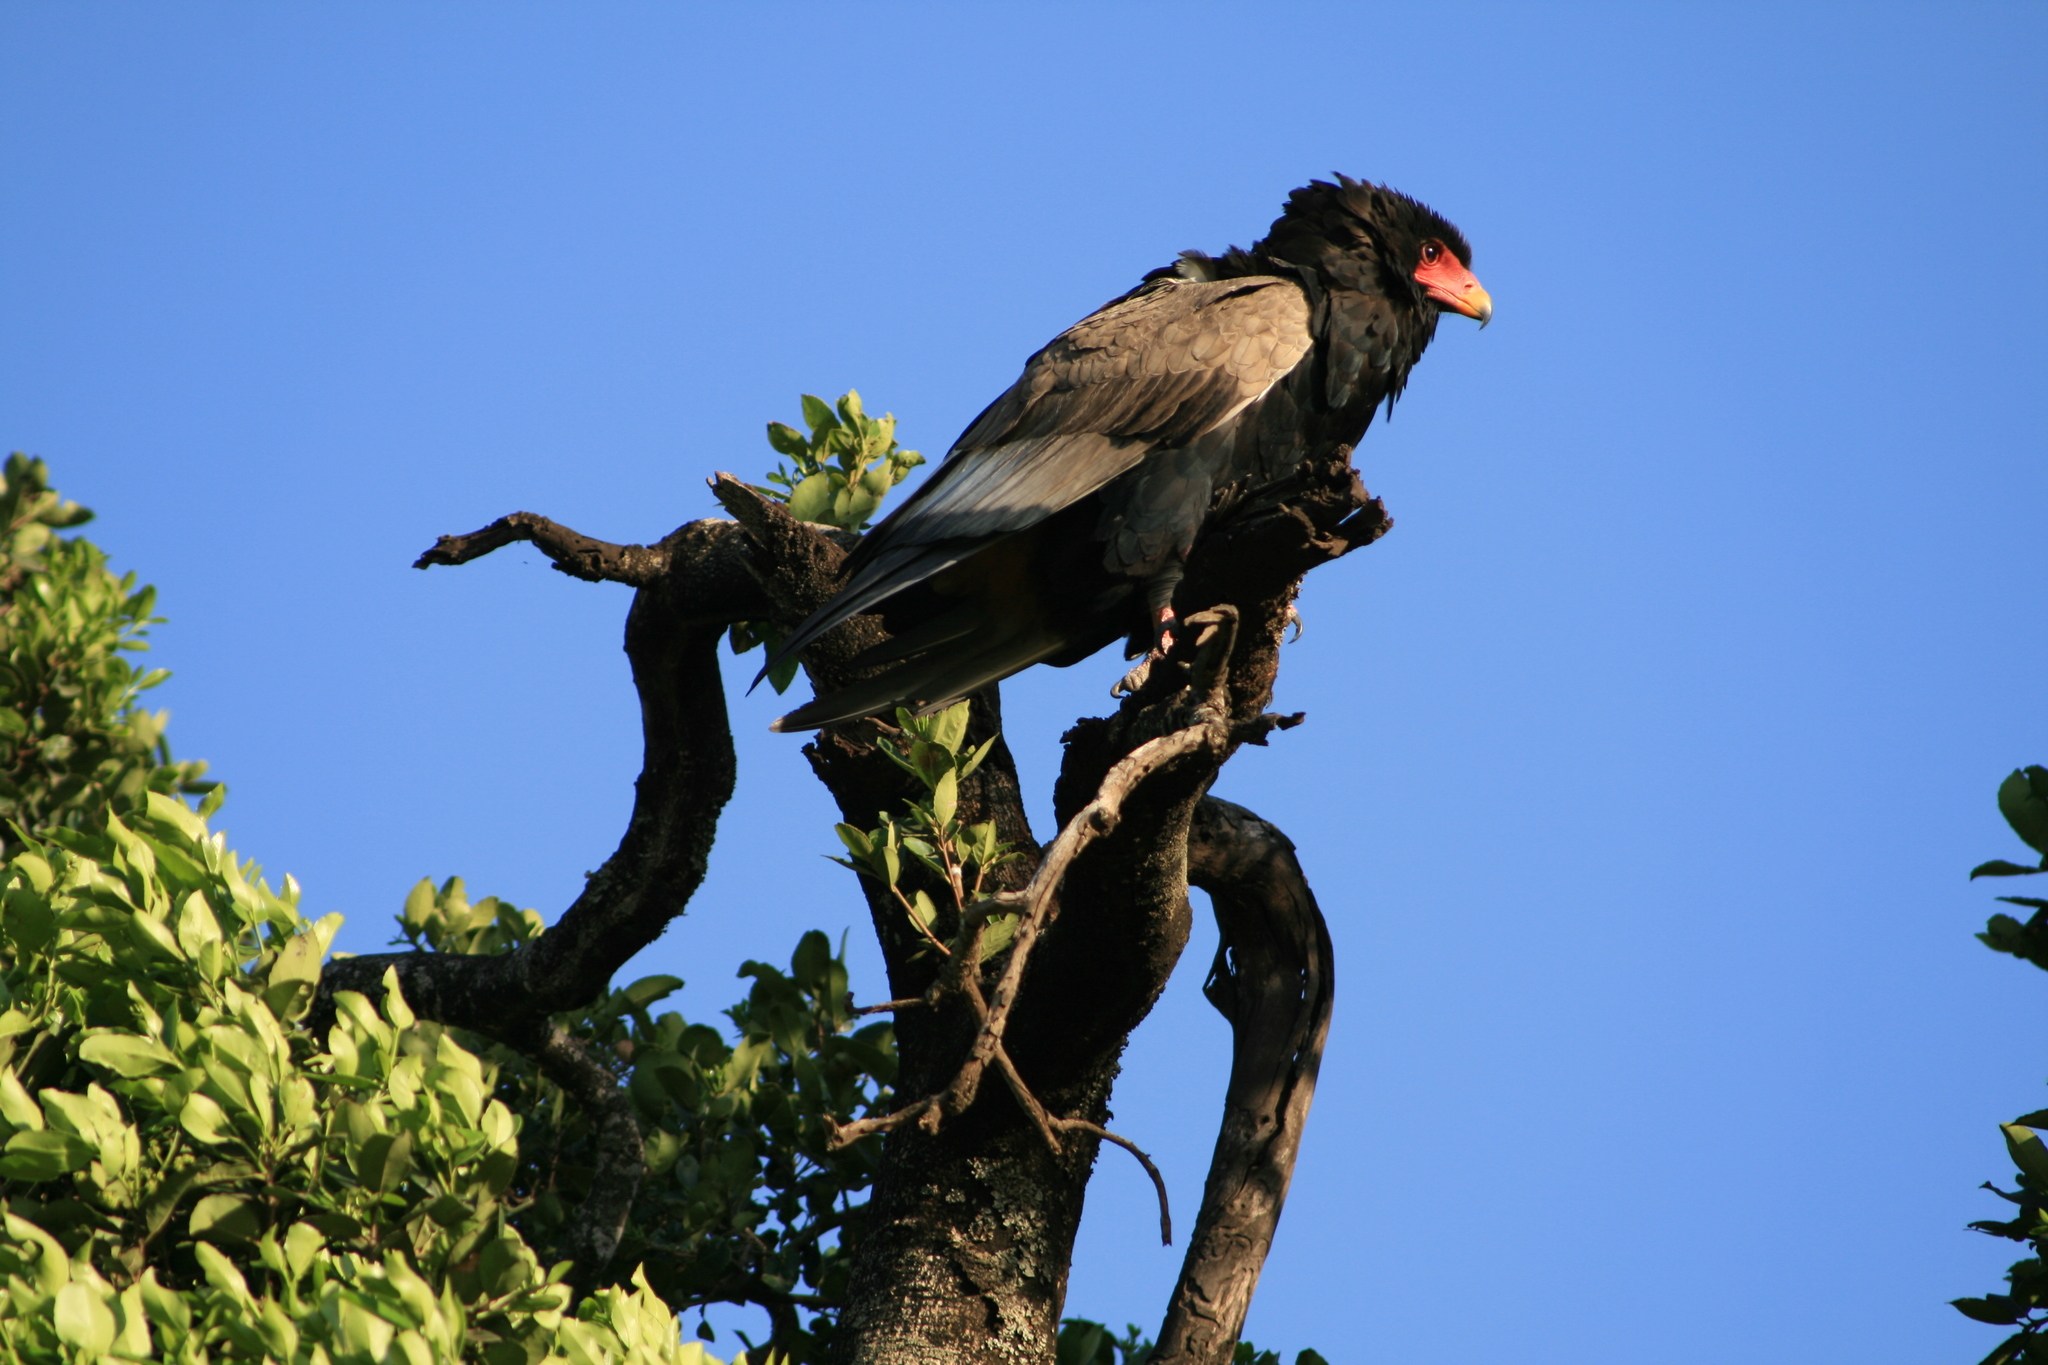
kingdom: Animalia
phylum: Chordata
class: Aves
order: Accipitriformes
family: Accipitridae
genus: Terathopius
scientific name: Terathopius ecaudatus
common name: Bateleur
